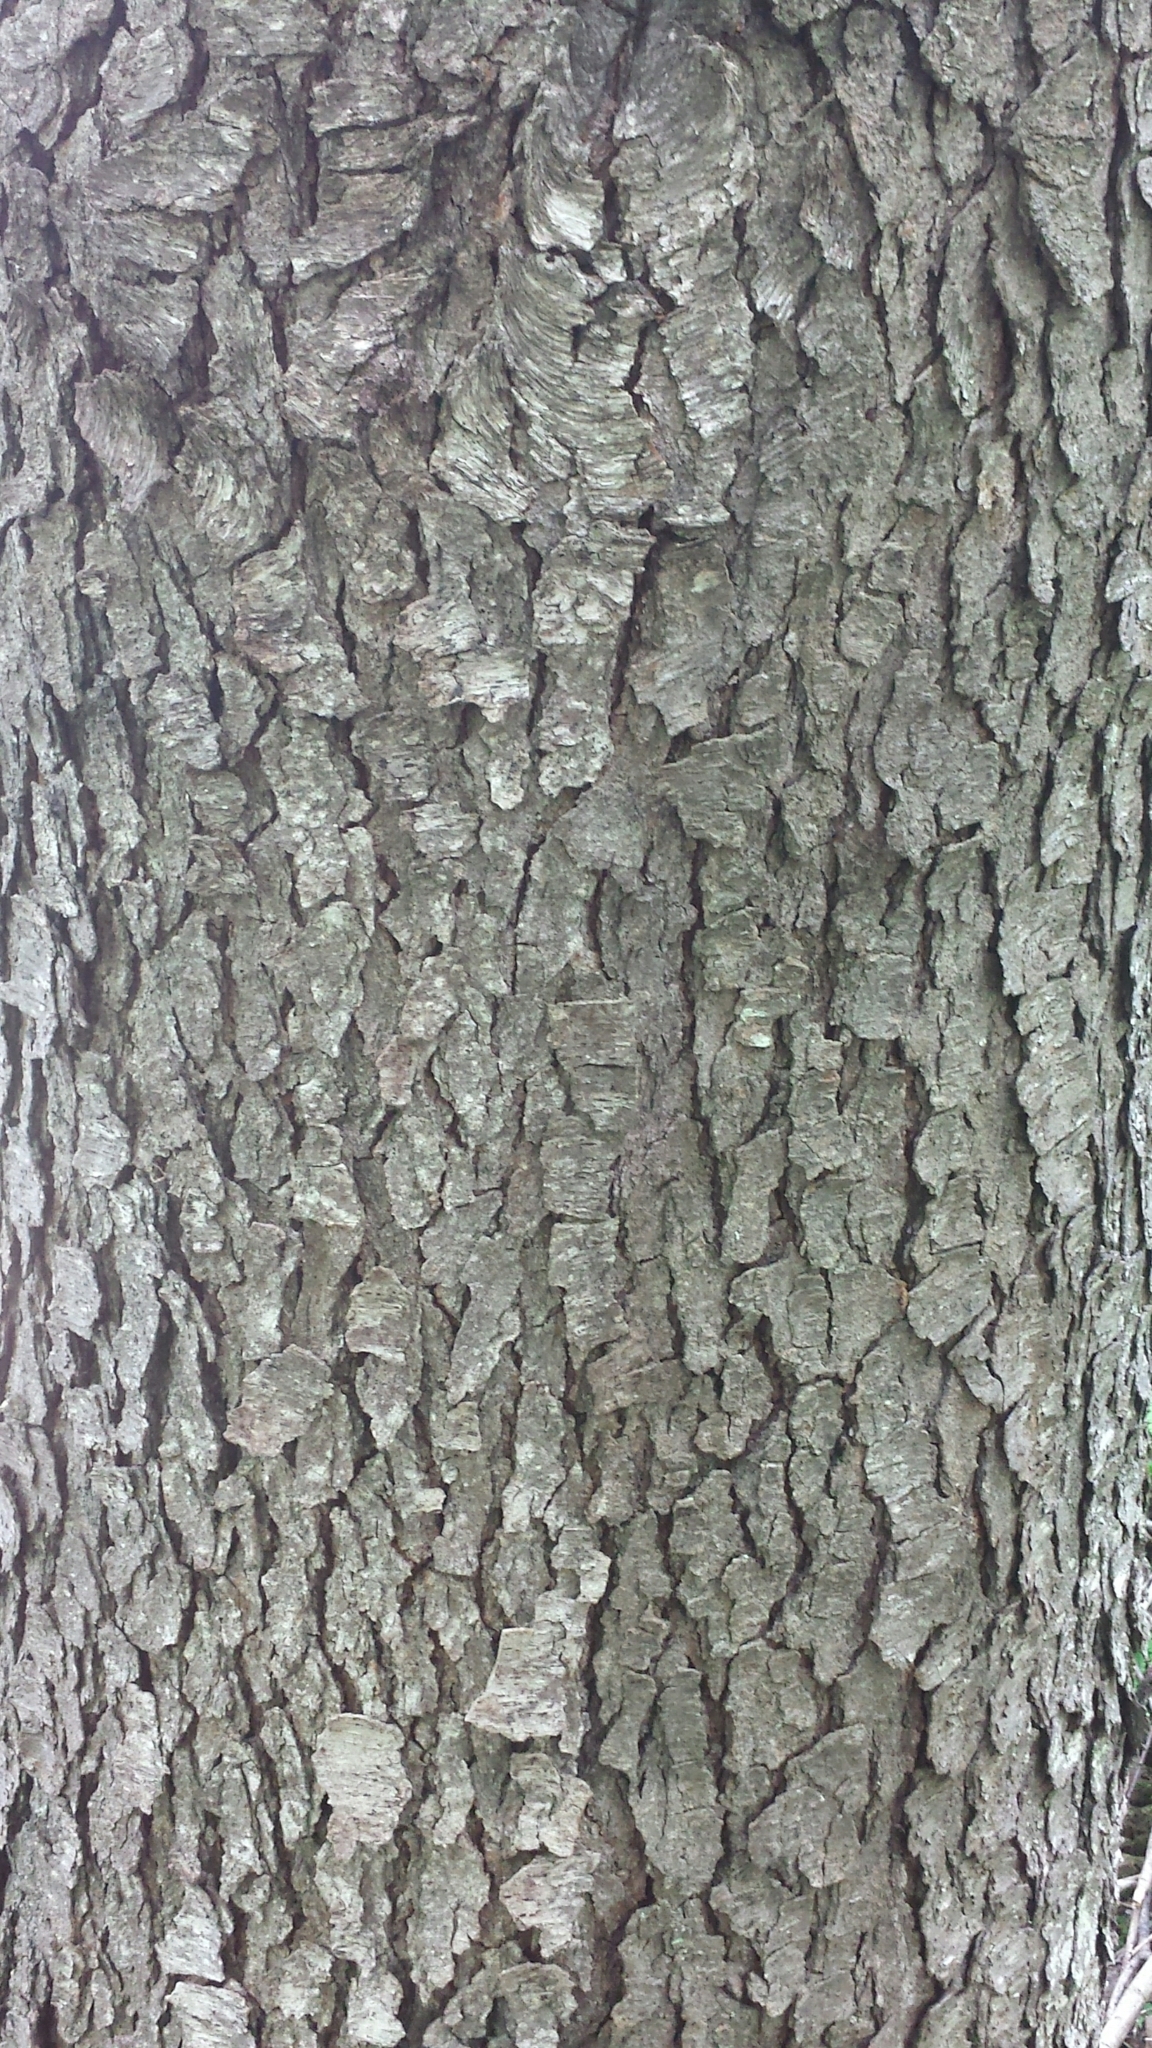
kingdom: Plantae
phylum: Tracheophyta
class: Magnoliopsida
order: Rosales
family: Rosaceae
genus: Prunus
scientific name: Prunus serotina
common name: Black cherry
